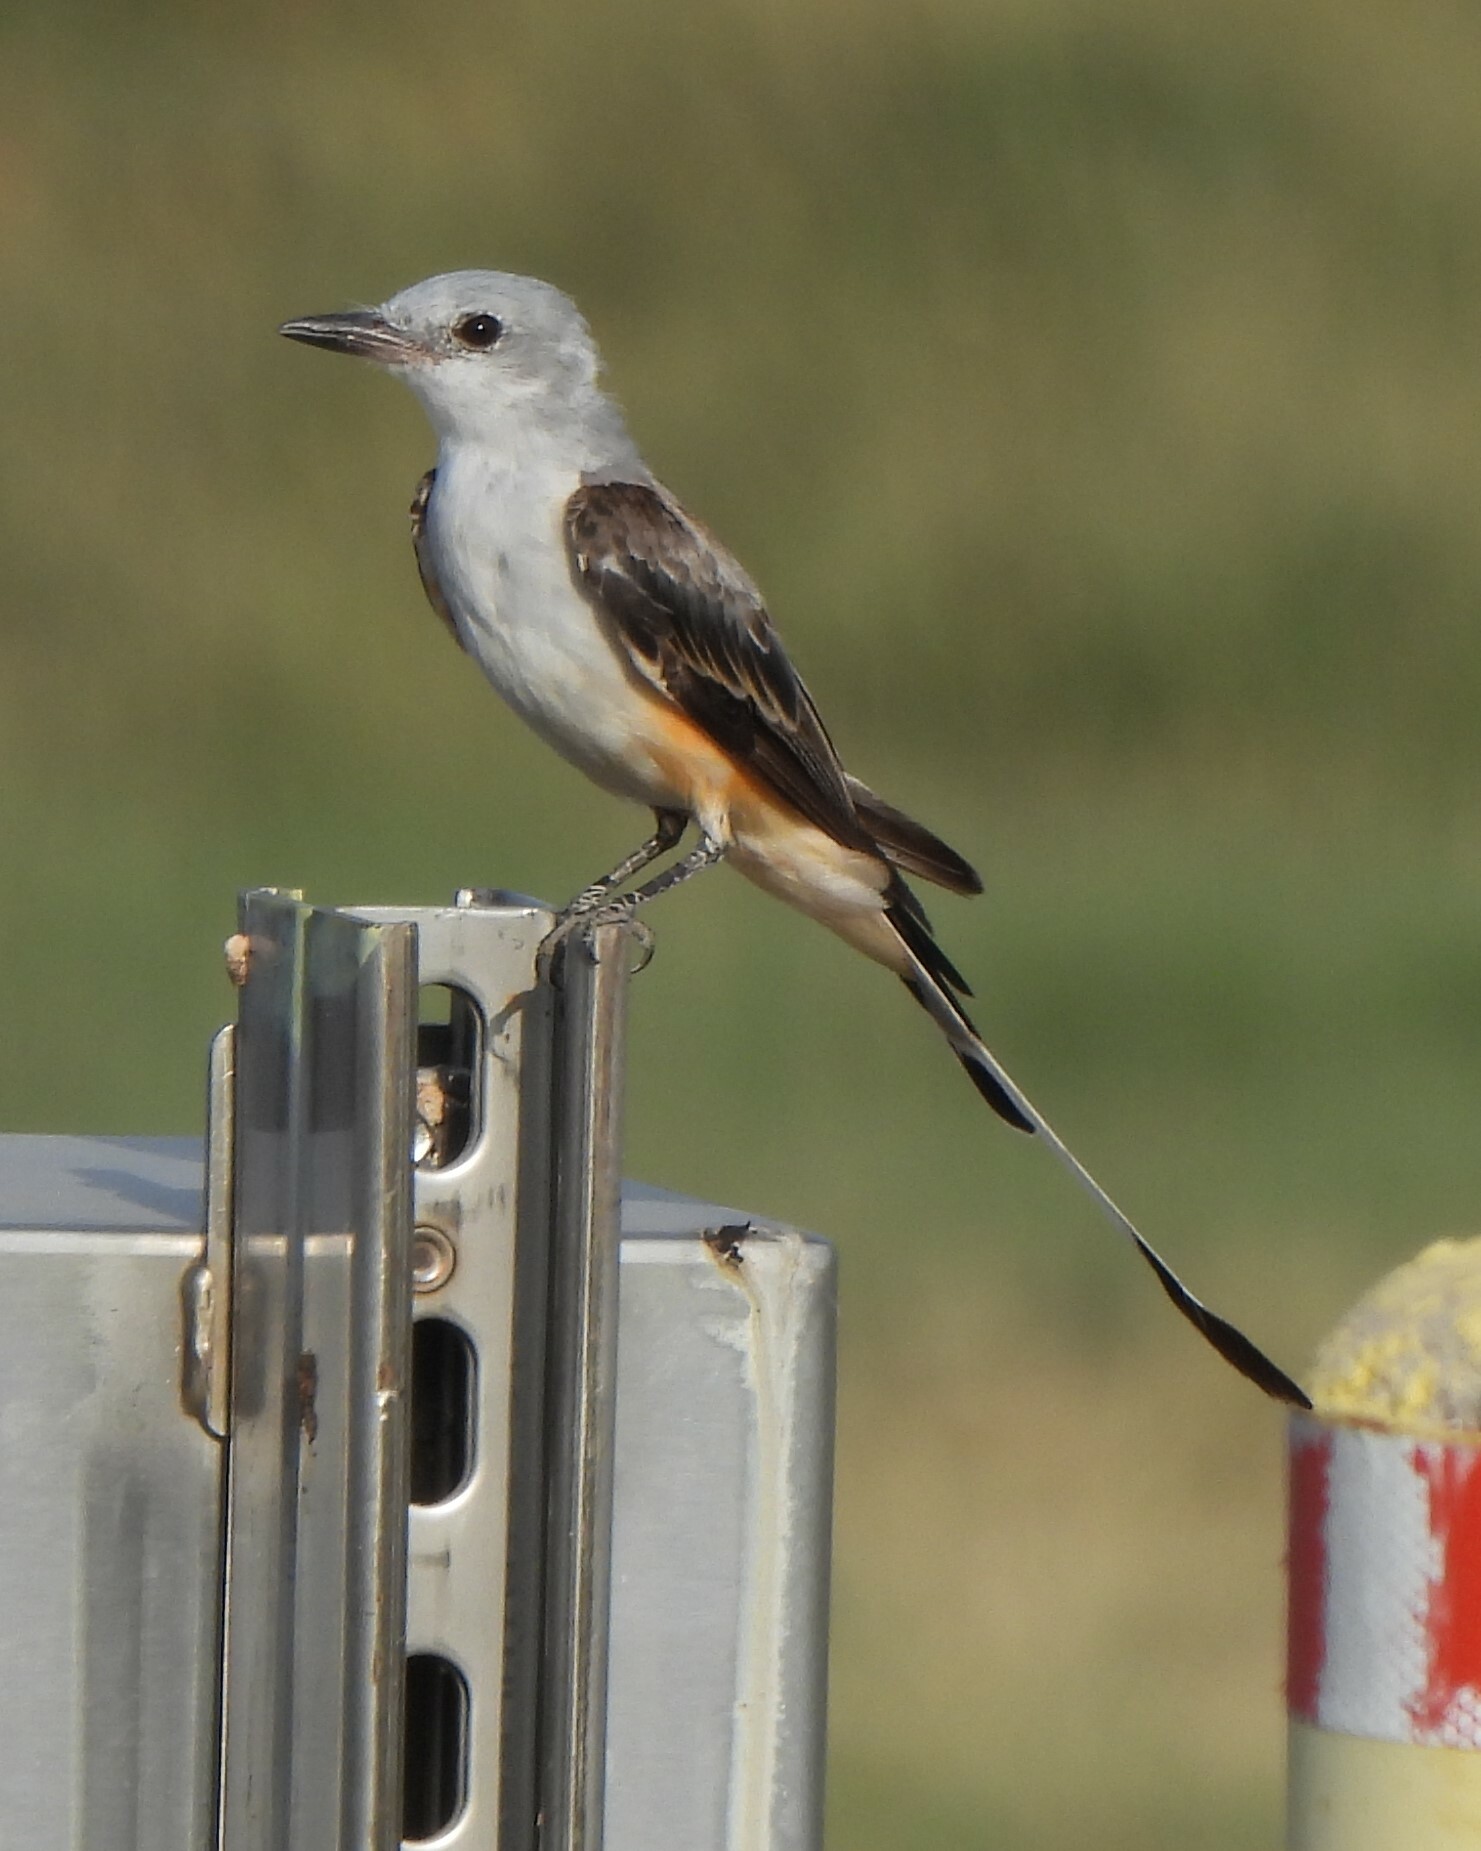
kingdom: Animalia
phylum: Chordata
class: Aves
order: Passeriformes
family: Tyrannidae
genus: Tyrannus
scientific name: Tyrannus forficatus
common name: Scissor-tailed flycatcher
